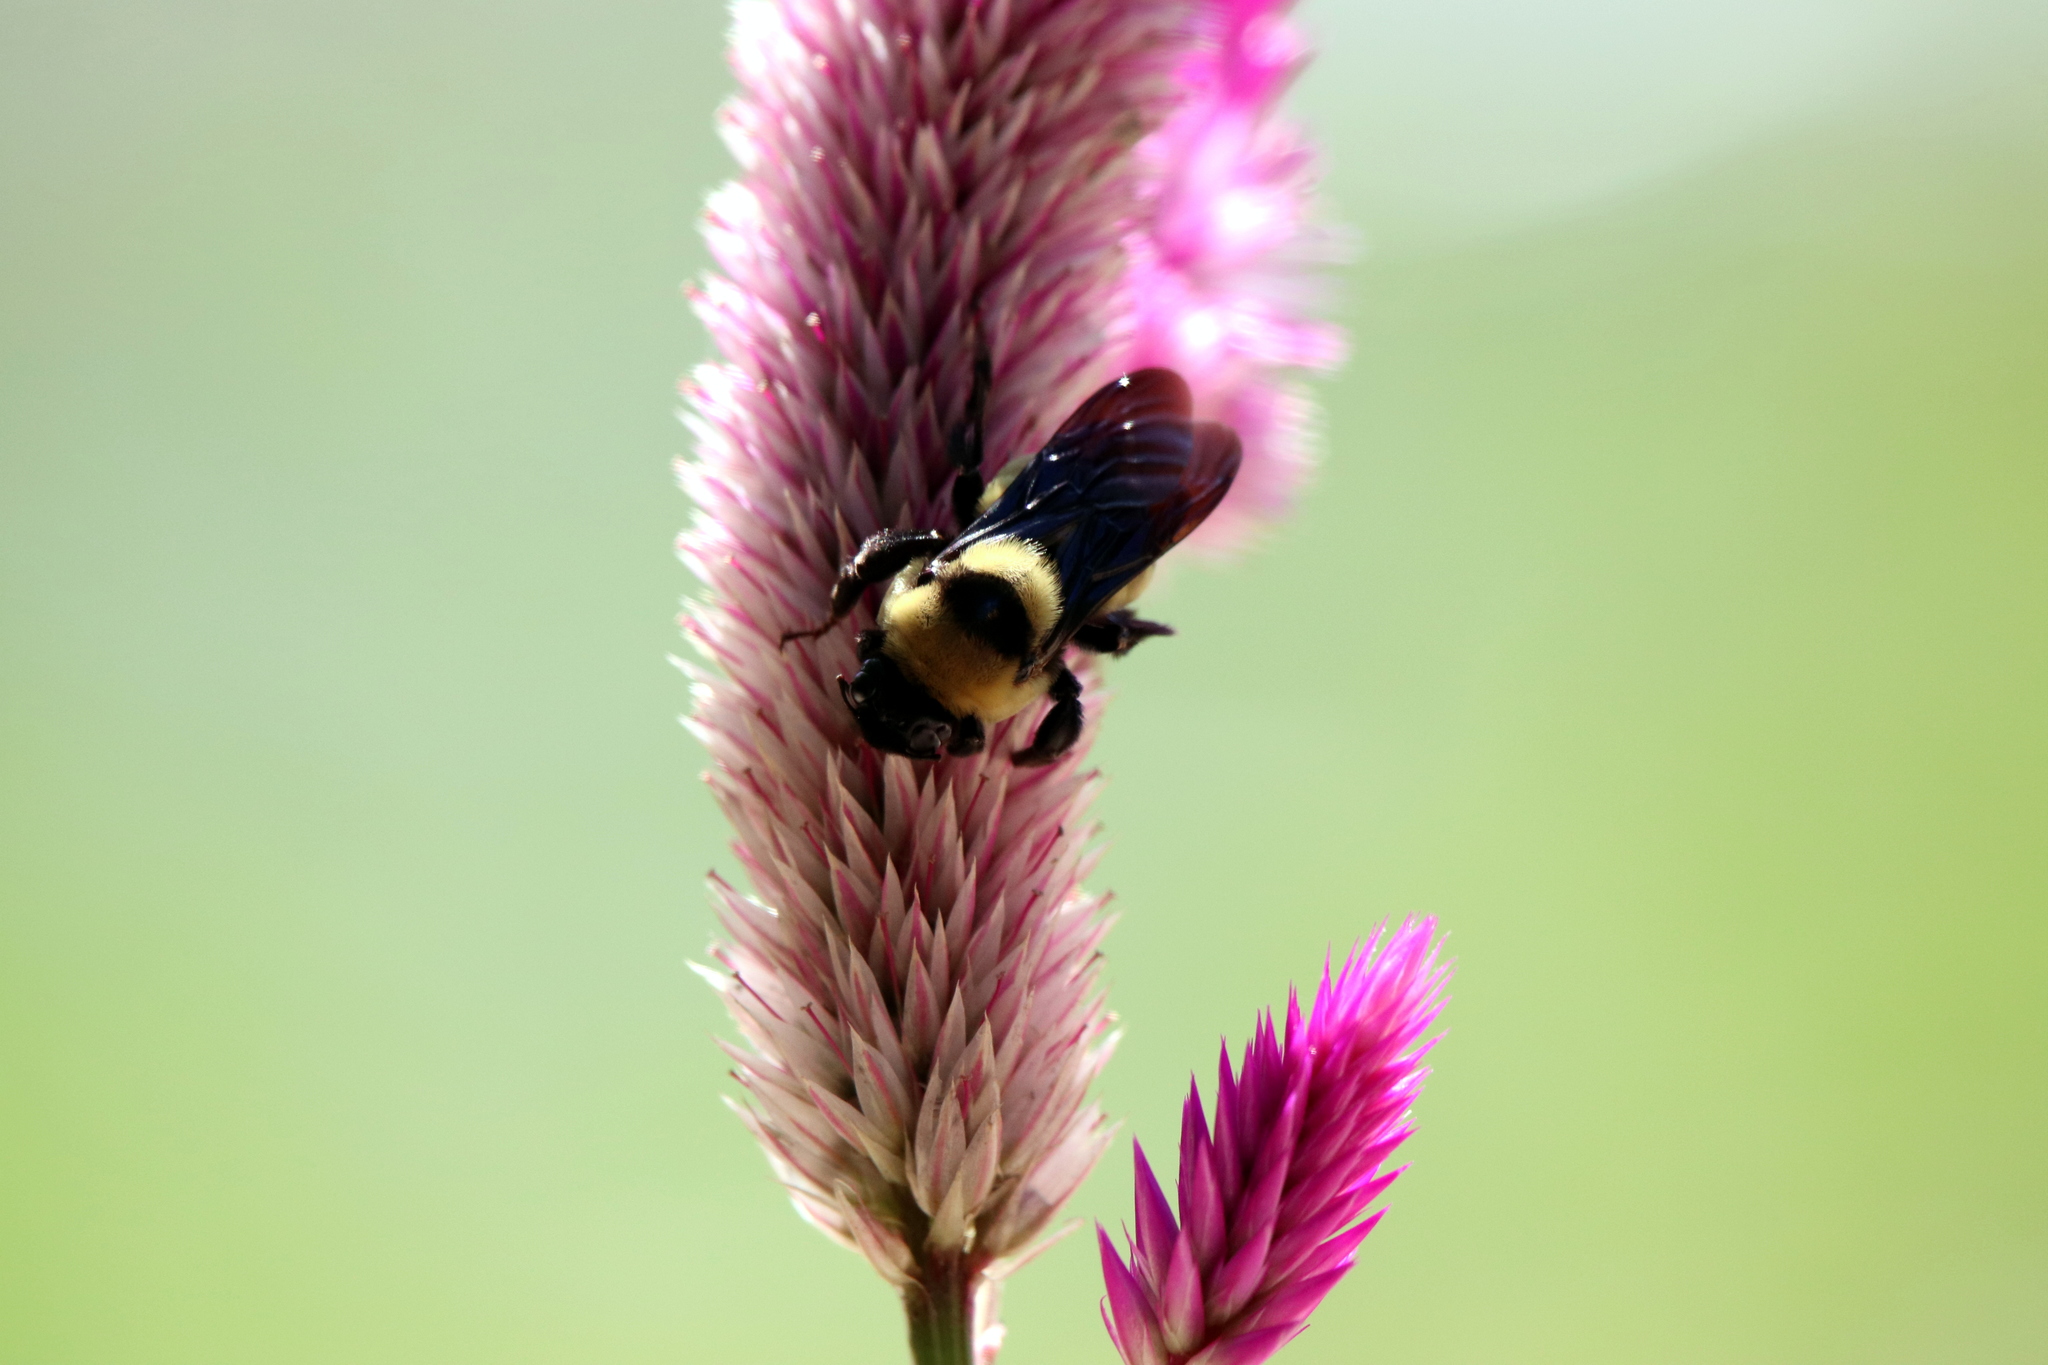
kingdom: Animalia
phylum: Arthropoda
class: Insecta
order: Hymenoptera
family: Apidae
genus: Bombus
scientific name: Bombus fraternus
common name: Southern plains bumble bee
